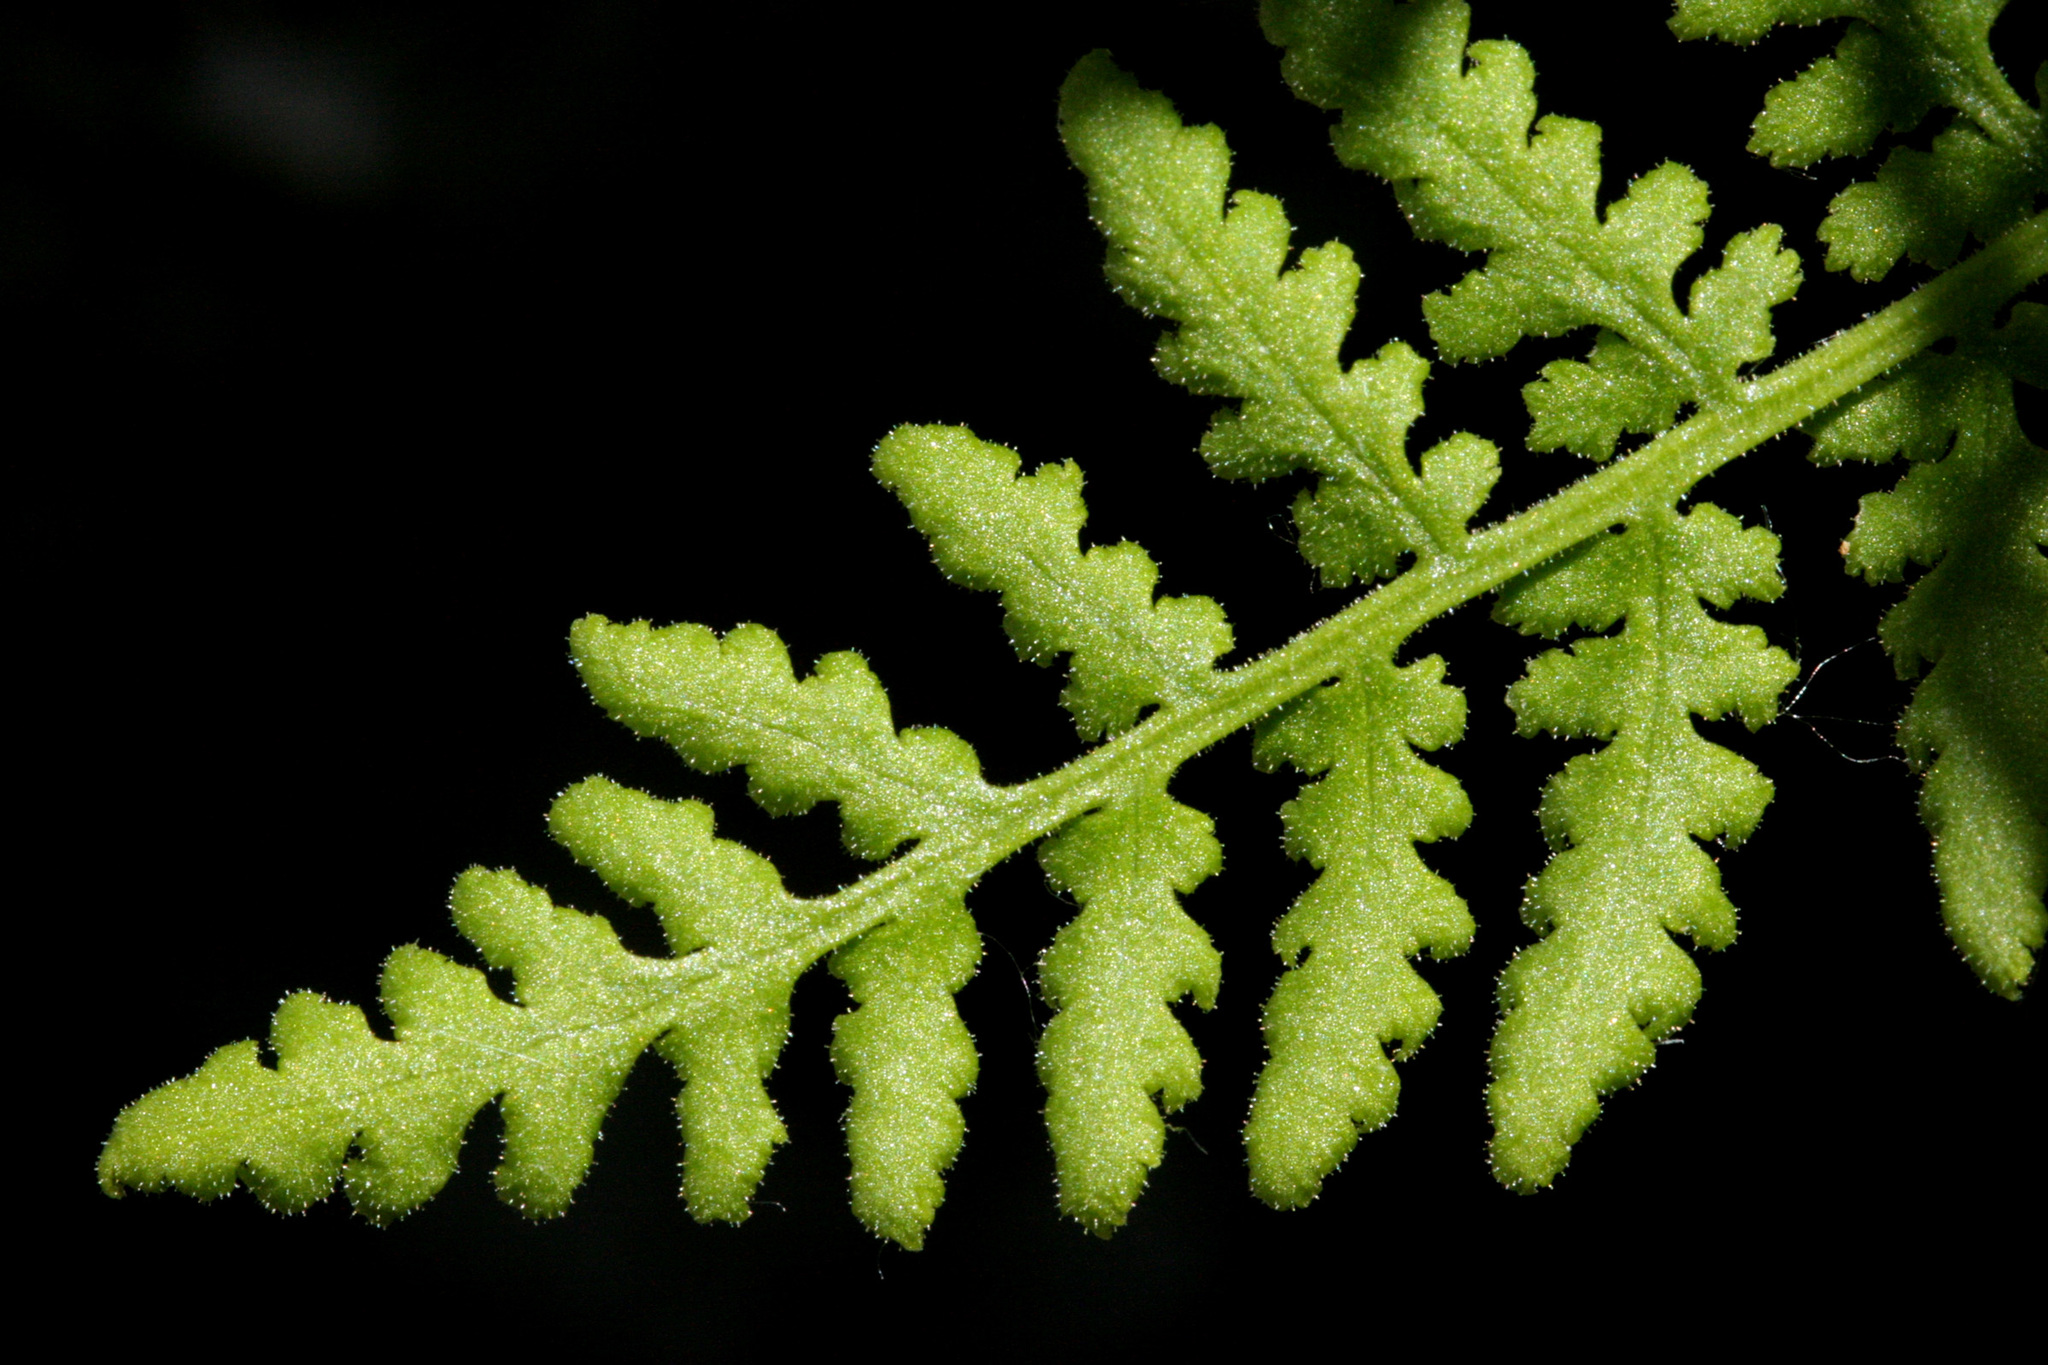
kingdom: Plantae
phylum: Tracheophyta
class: Polypodiopsida
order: Polypodiales
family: Woodsiaceae
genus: Physematium
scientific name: Physematium plummerae
